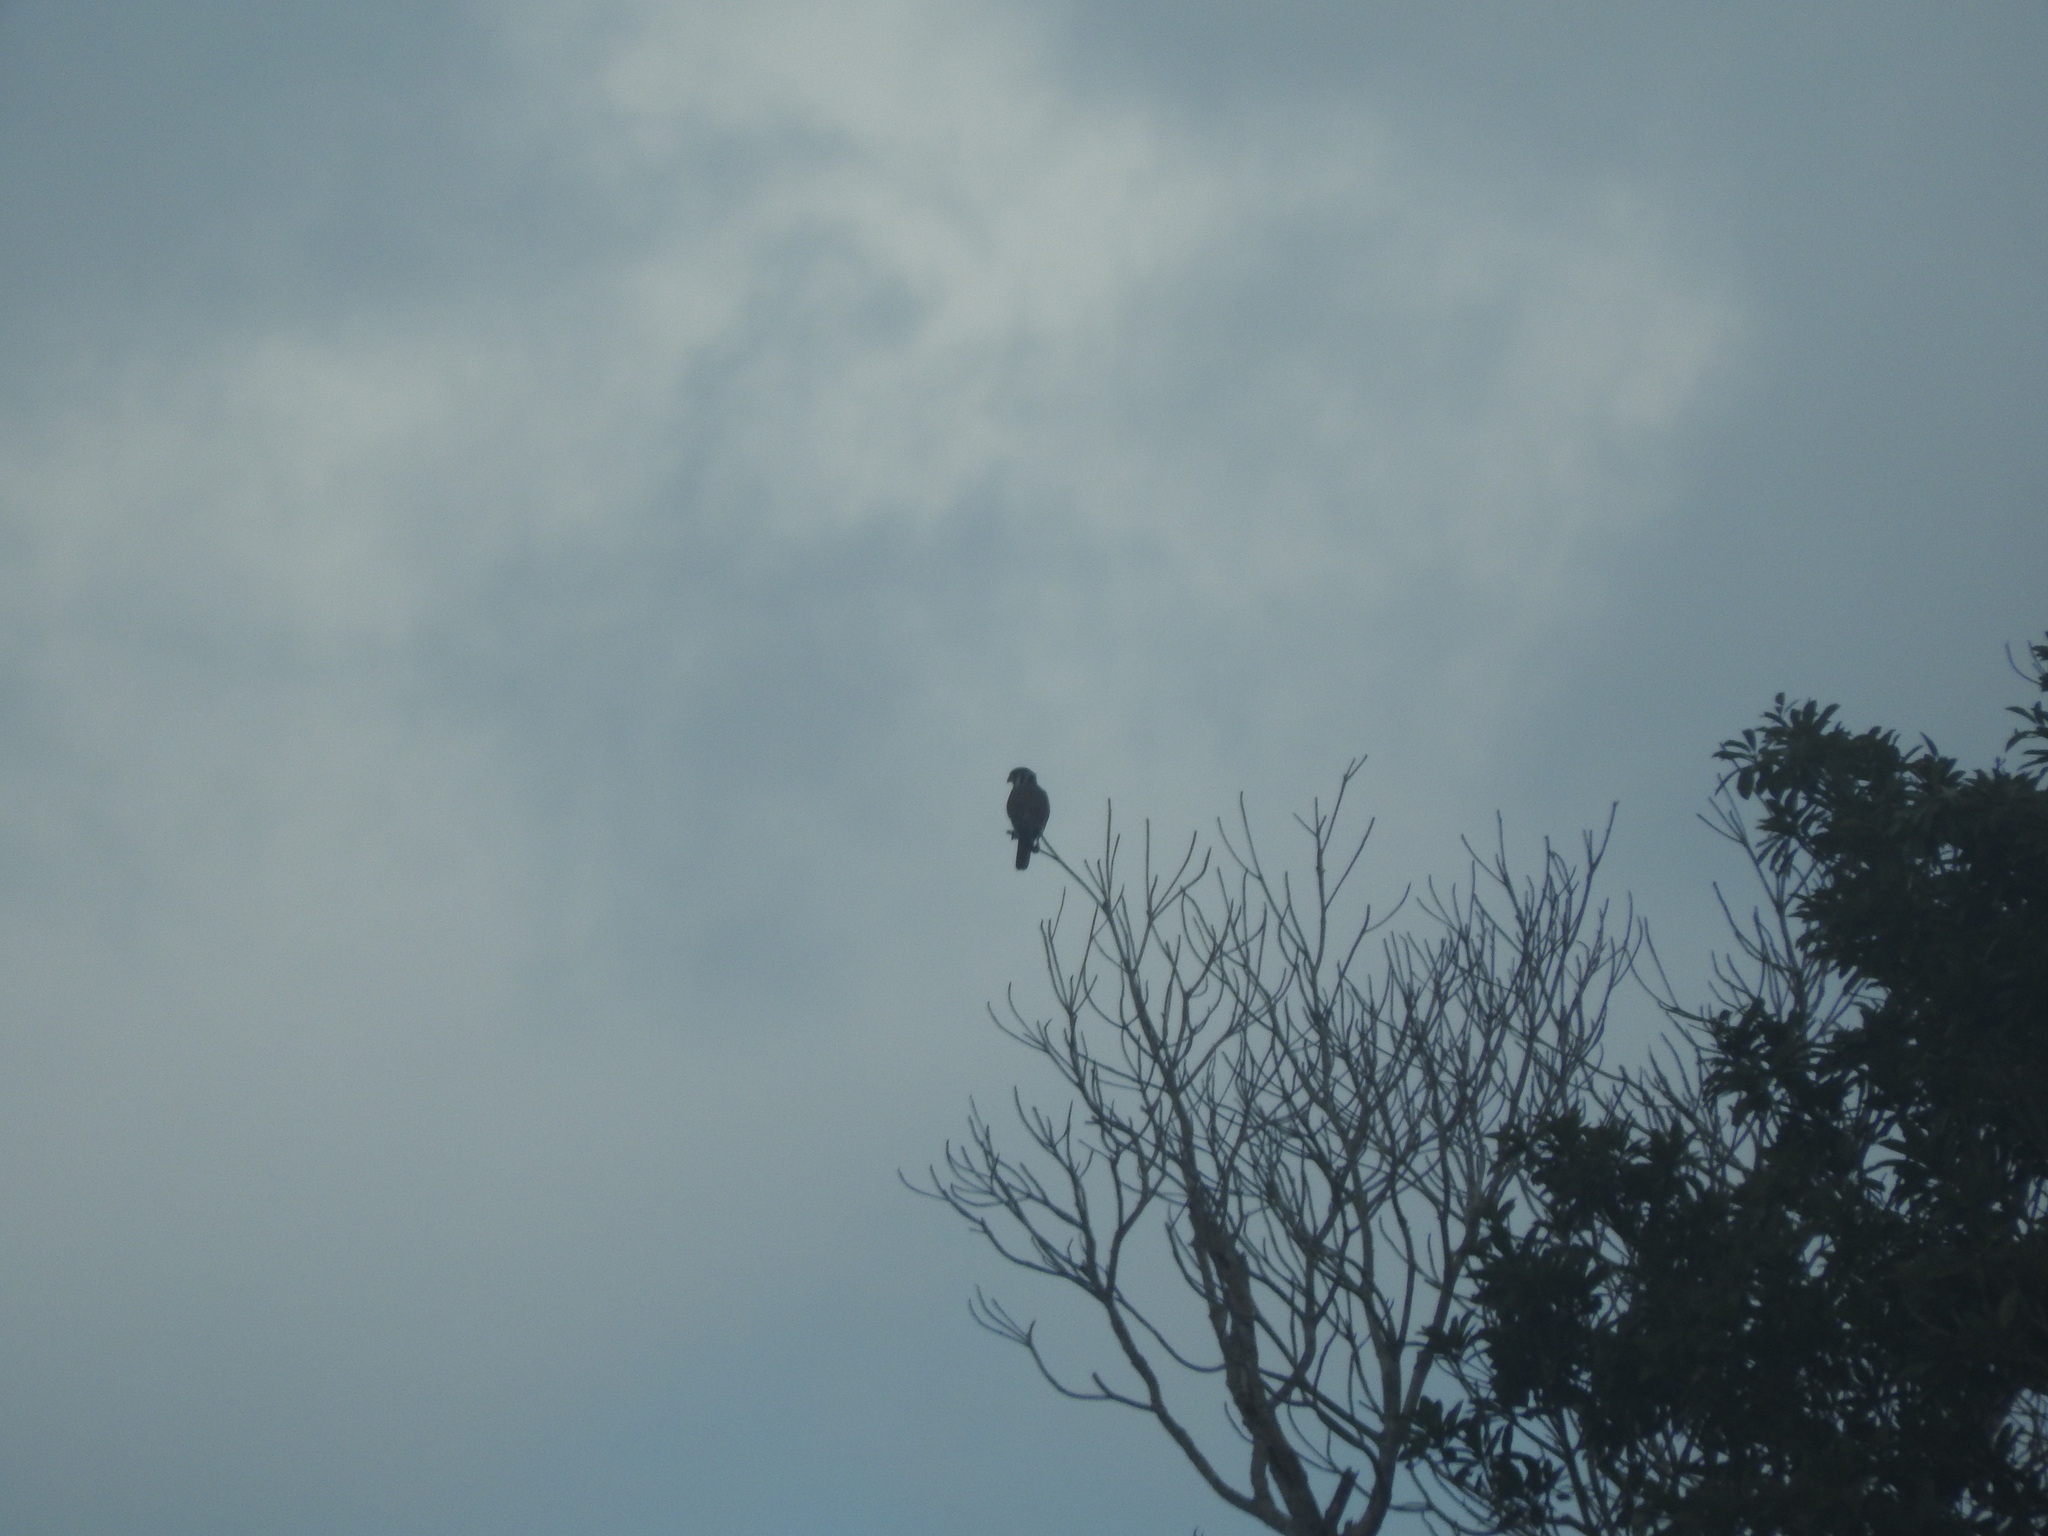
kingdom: Animalia
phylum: Chordata
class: Aves
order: Falconiformes
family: Falconidae
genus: Falco
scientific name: Falco sparverius
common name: American kestrel
